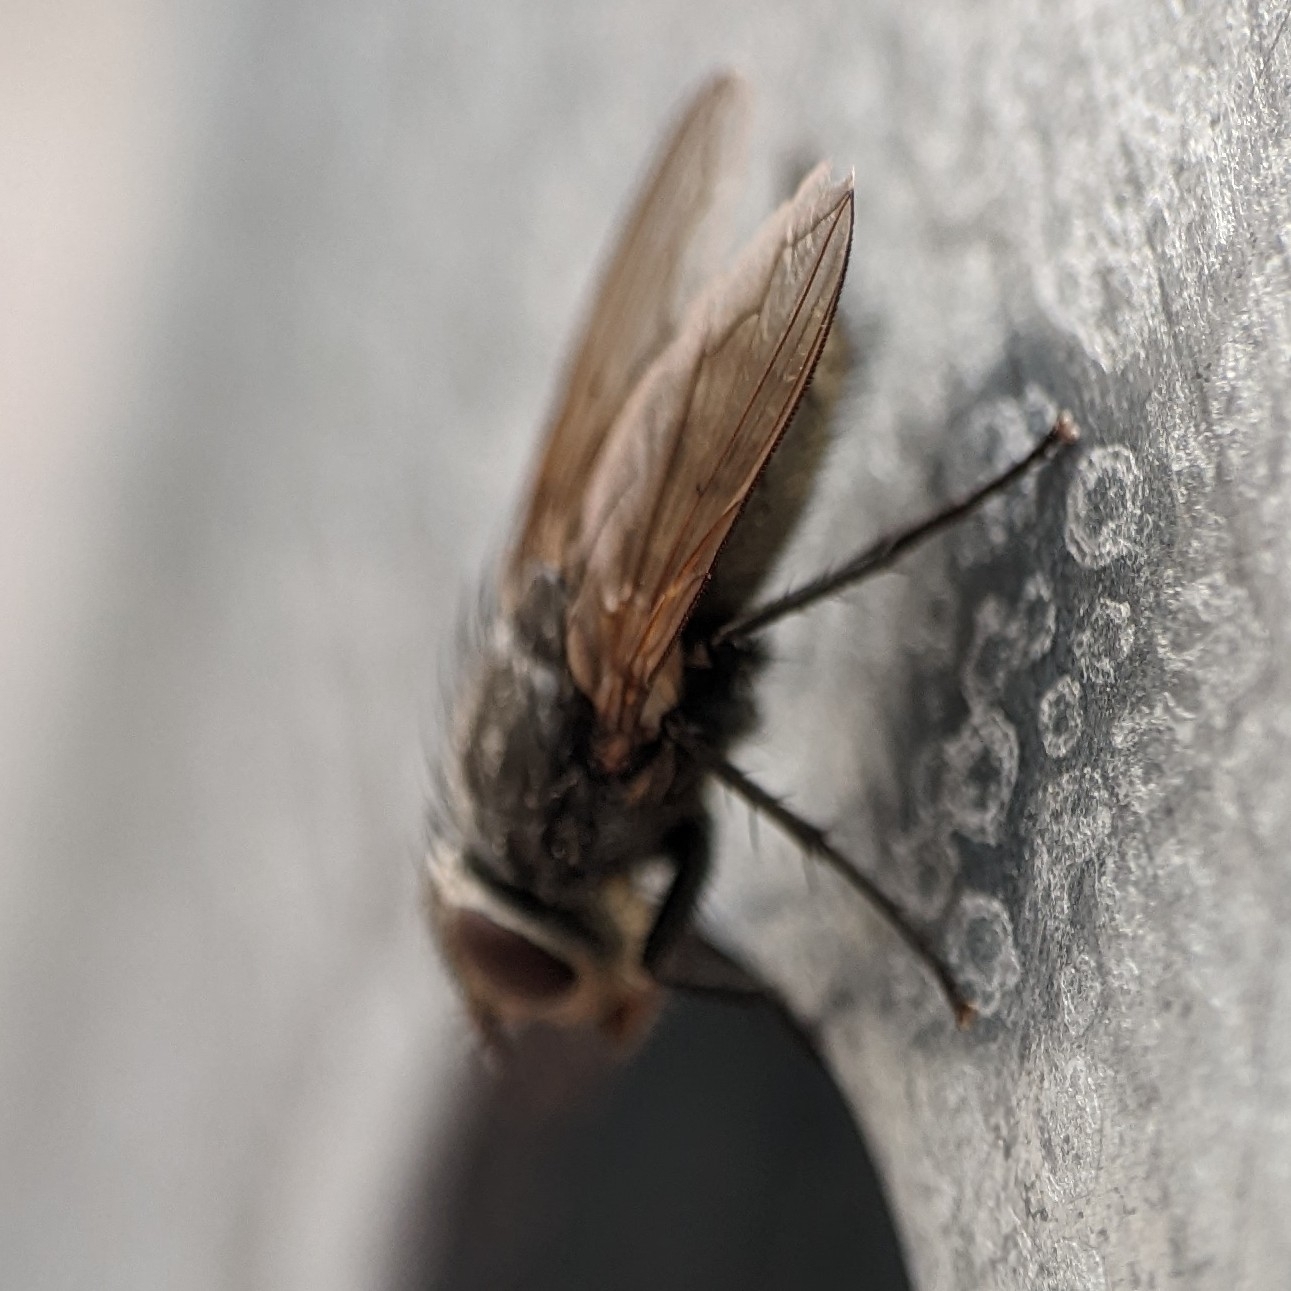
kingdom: Animalia
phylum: Arthropoda
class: Insecta
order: Diptera
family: Polleniidae
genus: Pollenia
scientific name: Pollenia
